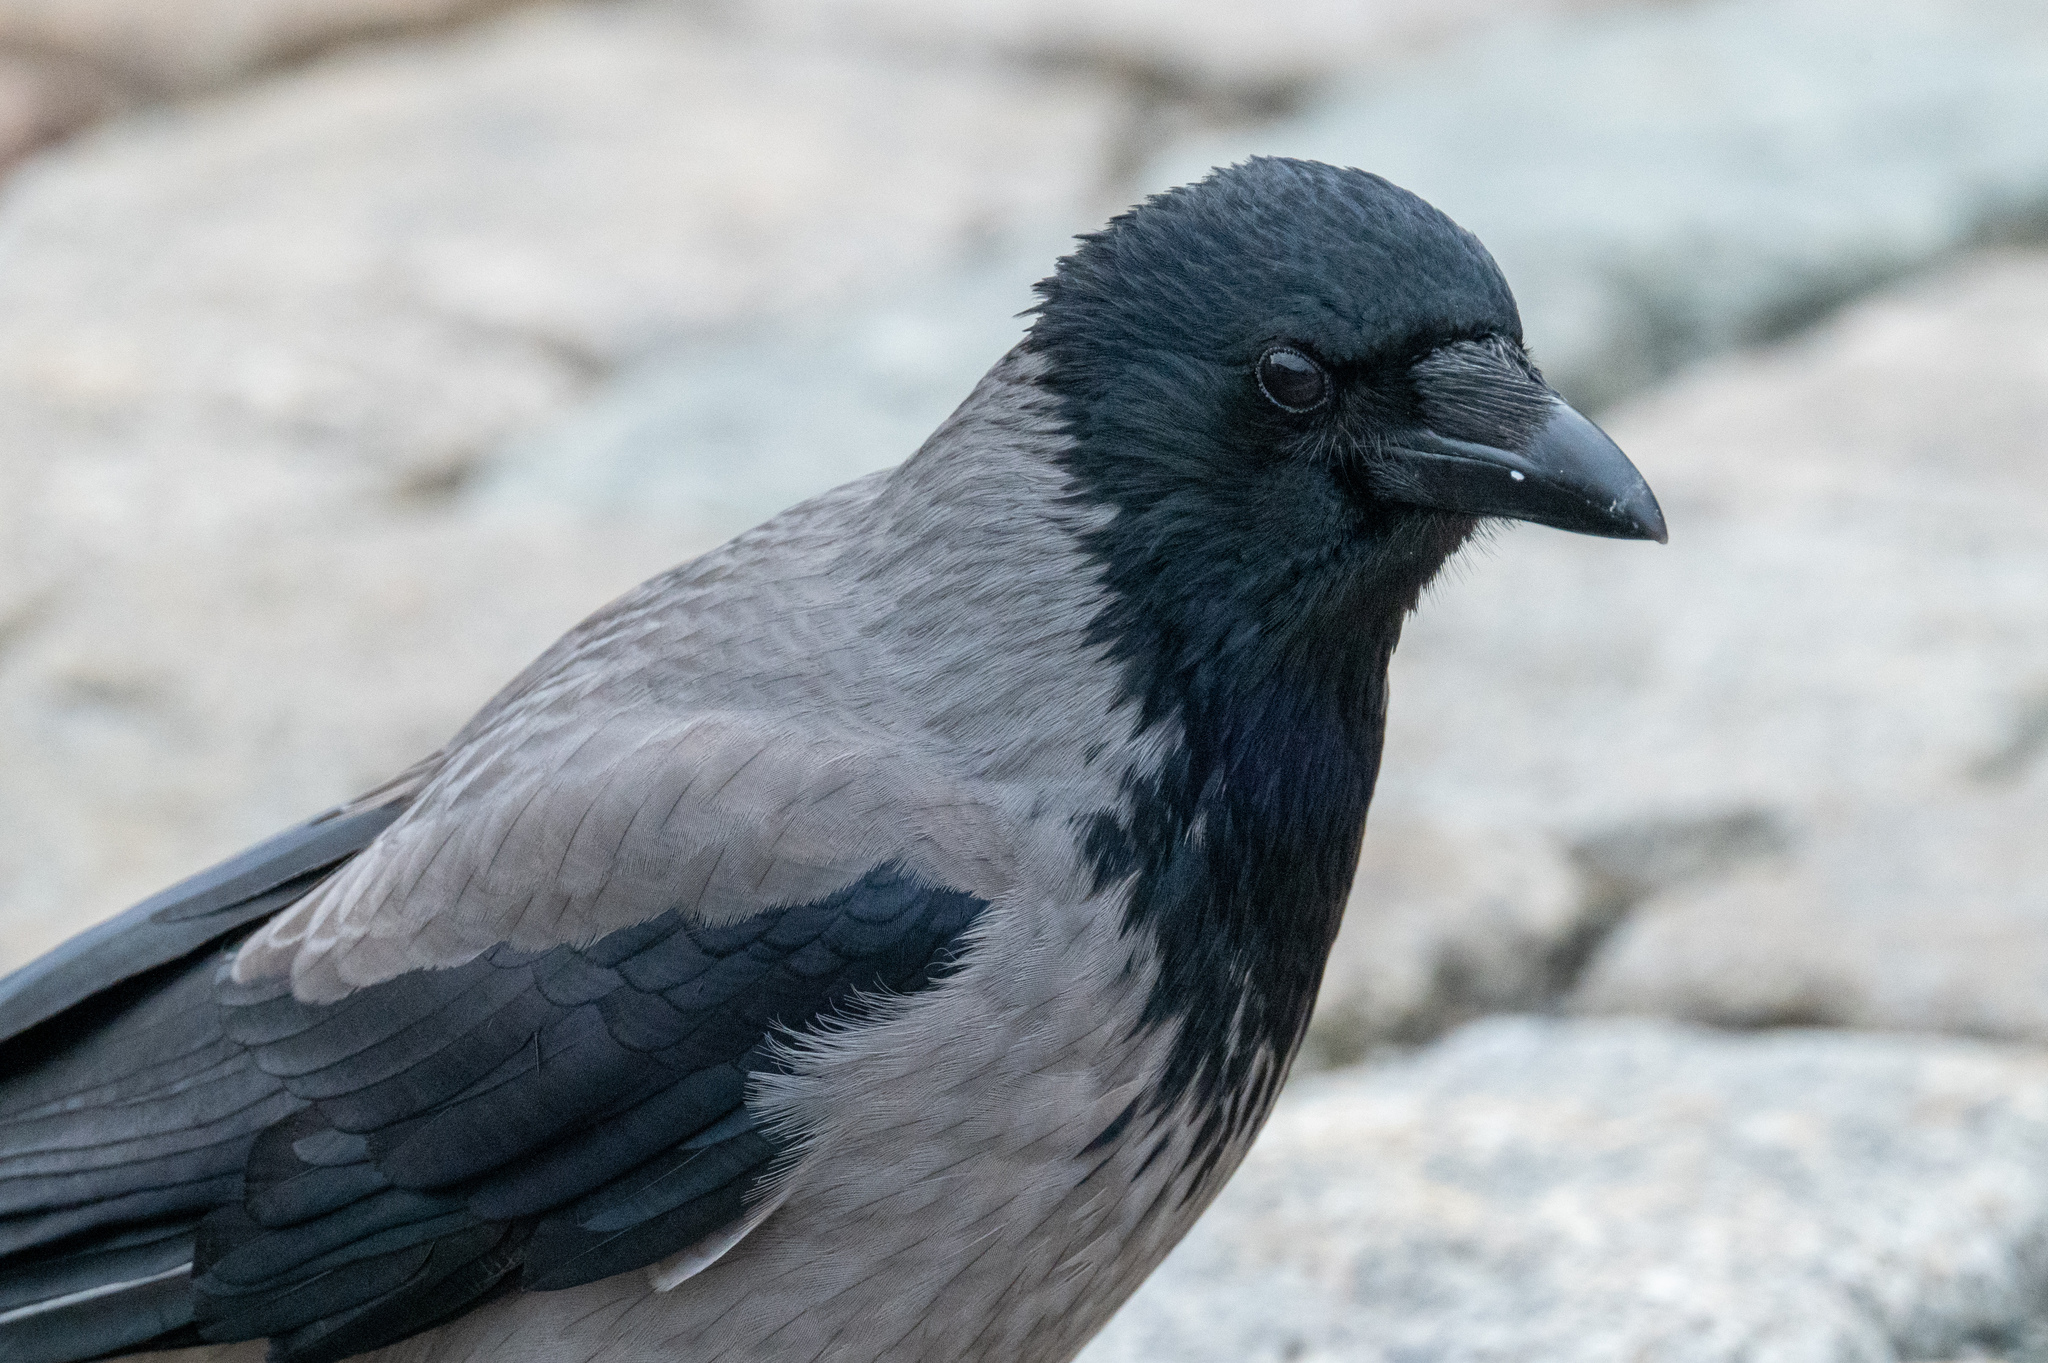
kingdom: Animalia
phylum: Chordata
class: Aves
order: Passeriformes
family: Corvidae
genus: Corvus
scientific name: Corvus cornix
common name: Hooded crow
